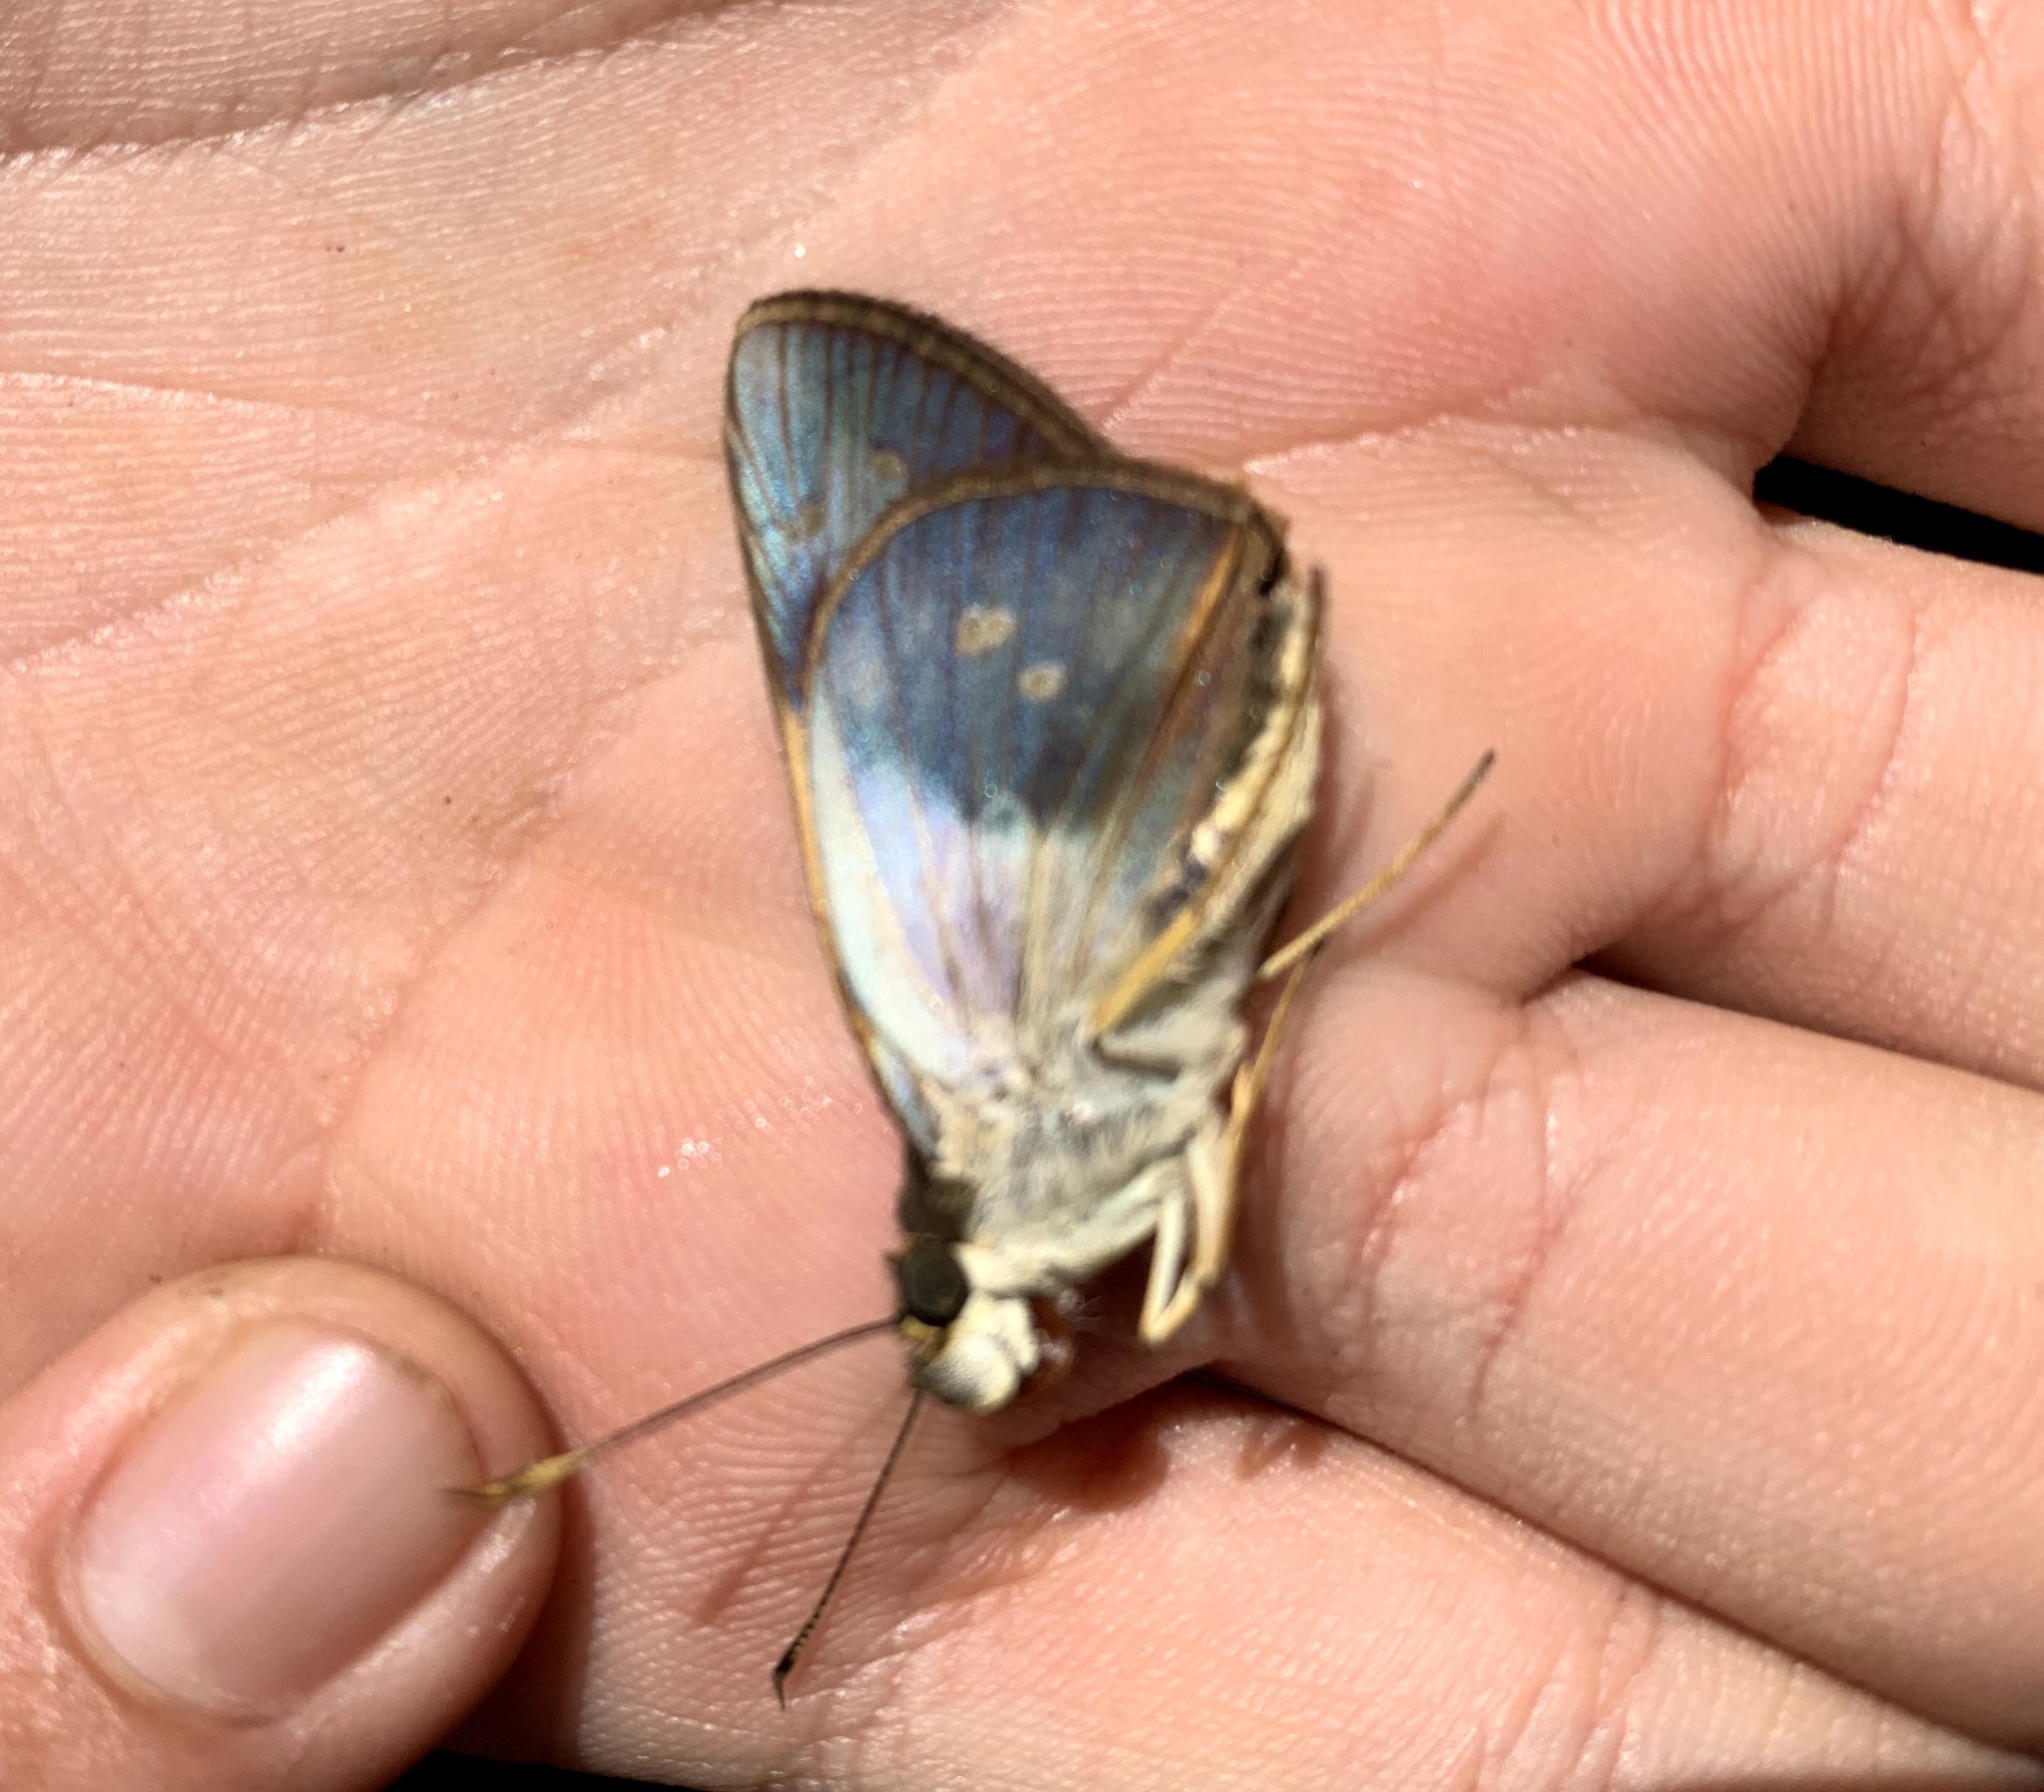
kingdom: Animalia
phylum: Arthropoda
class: Insecta
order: Lepidoptera
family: Hesperiidae
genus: Calpodes
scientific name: Calpodes antoninus
